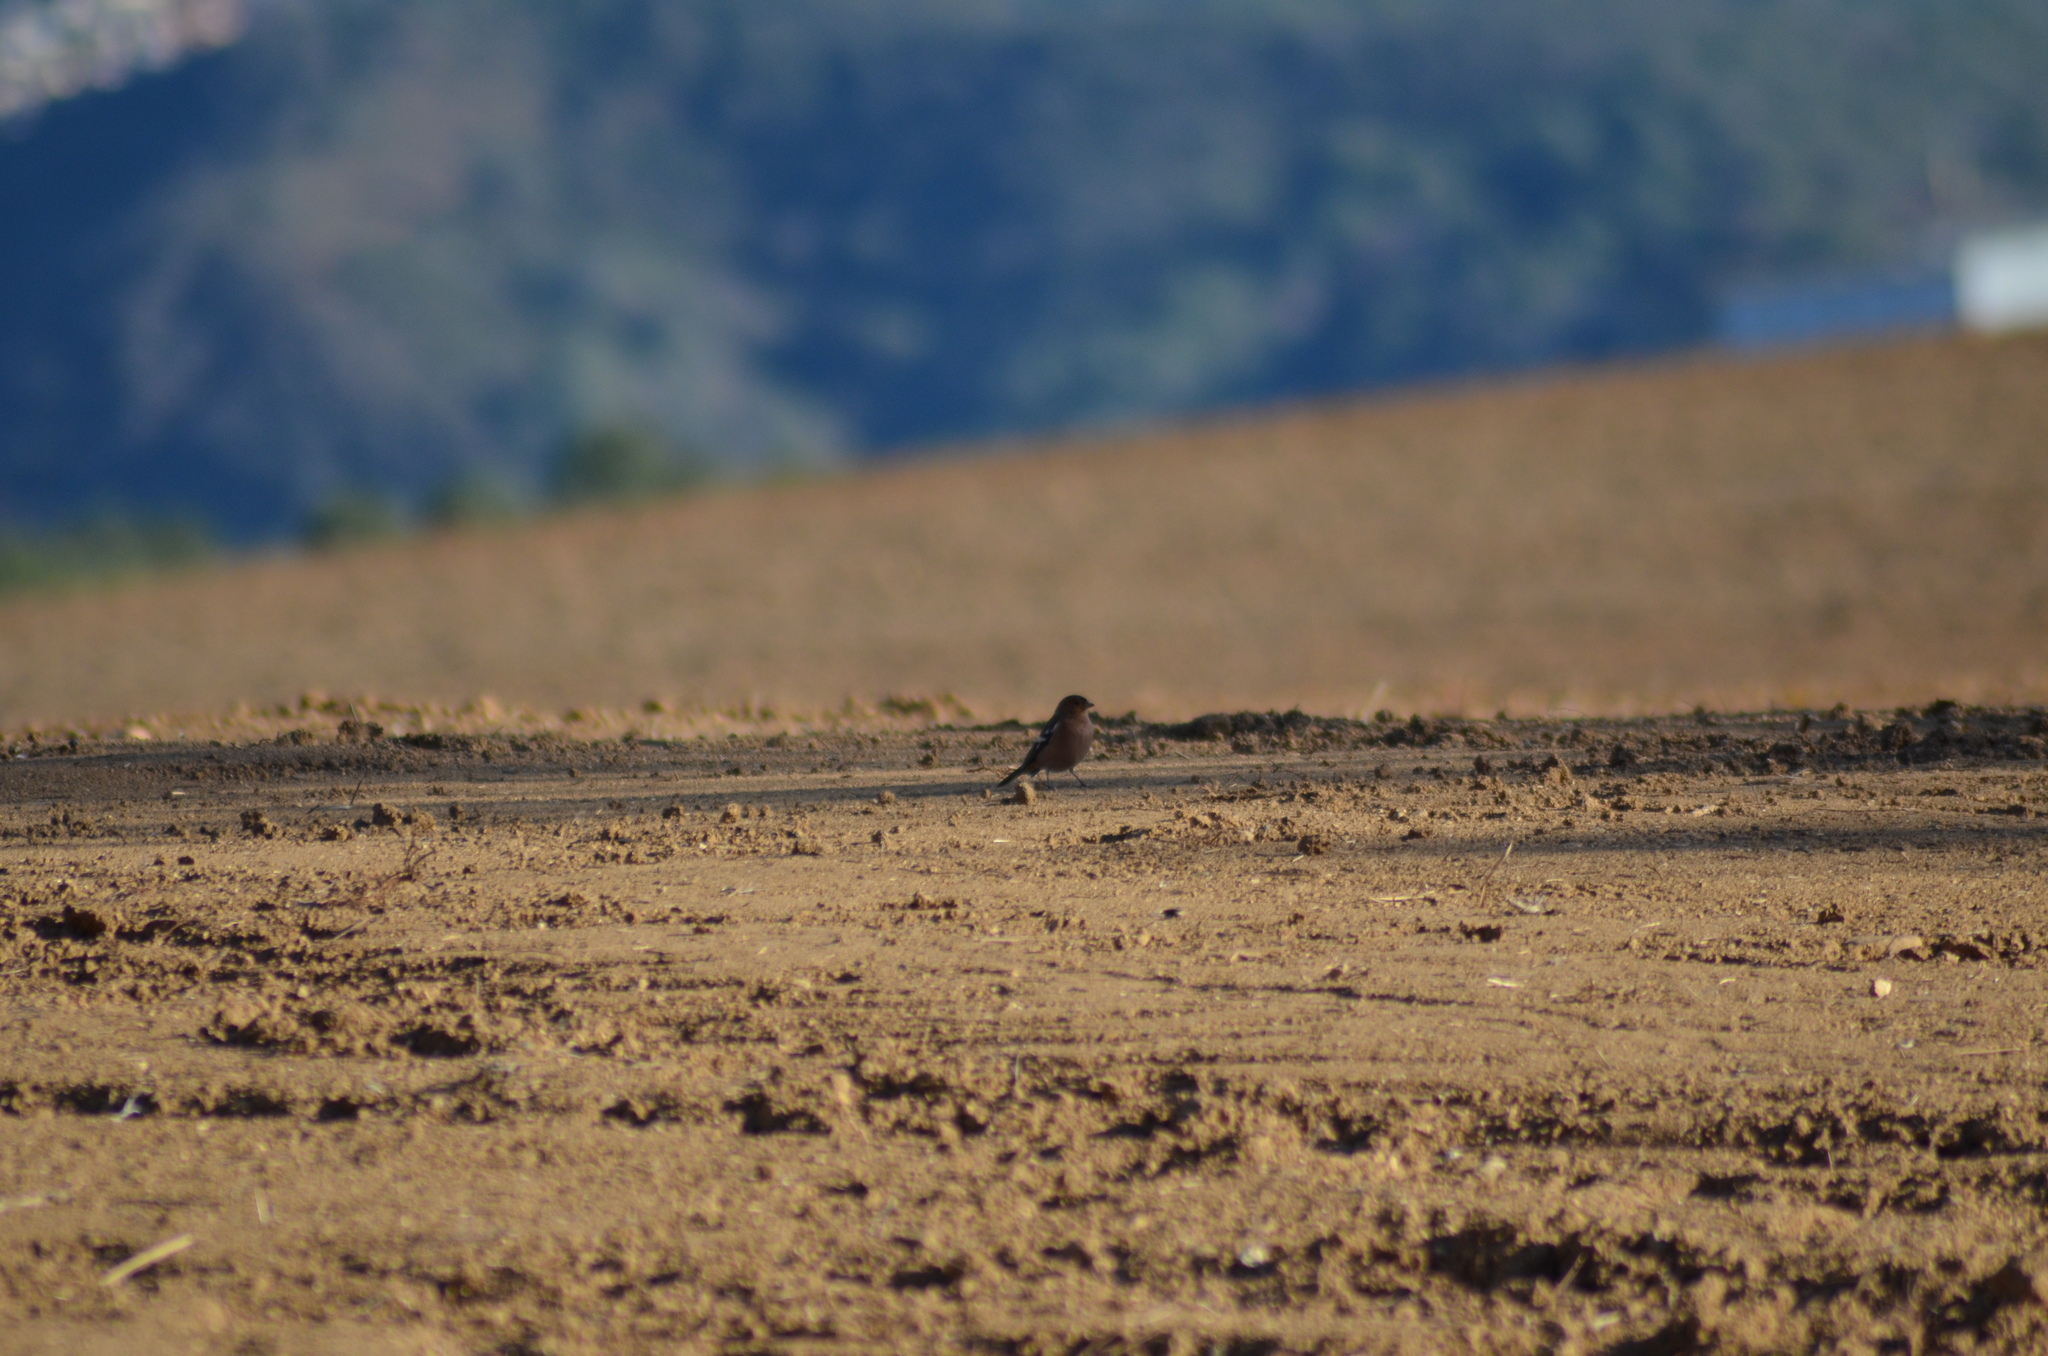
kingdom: Animalia
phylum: Chordata
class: Aves
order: Passeriformes
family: Fringillidae
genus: Fringilla
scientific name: Fringilla coelebs
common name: Common chaffinch
